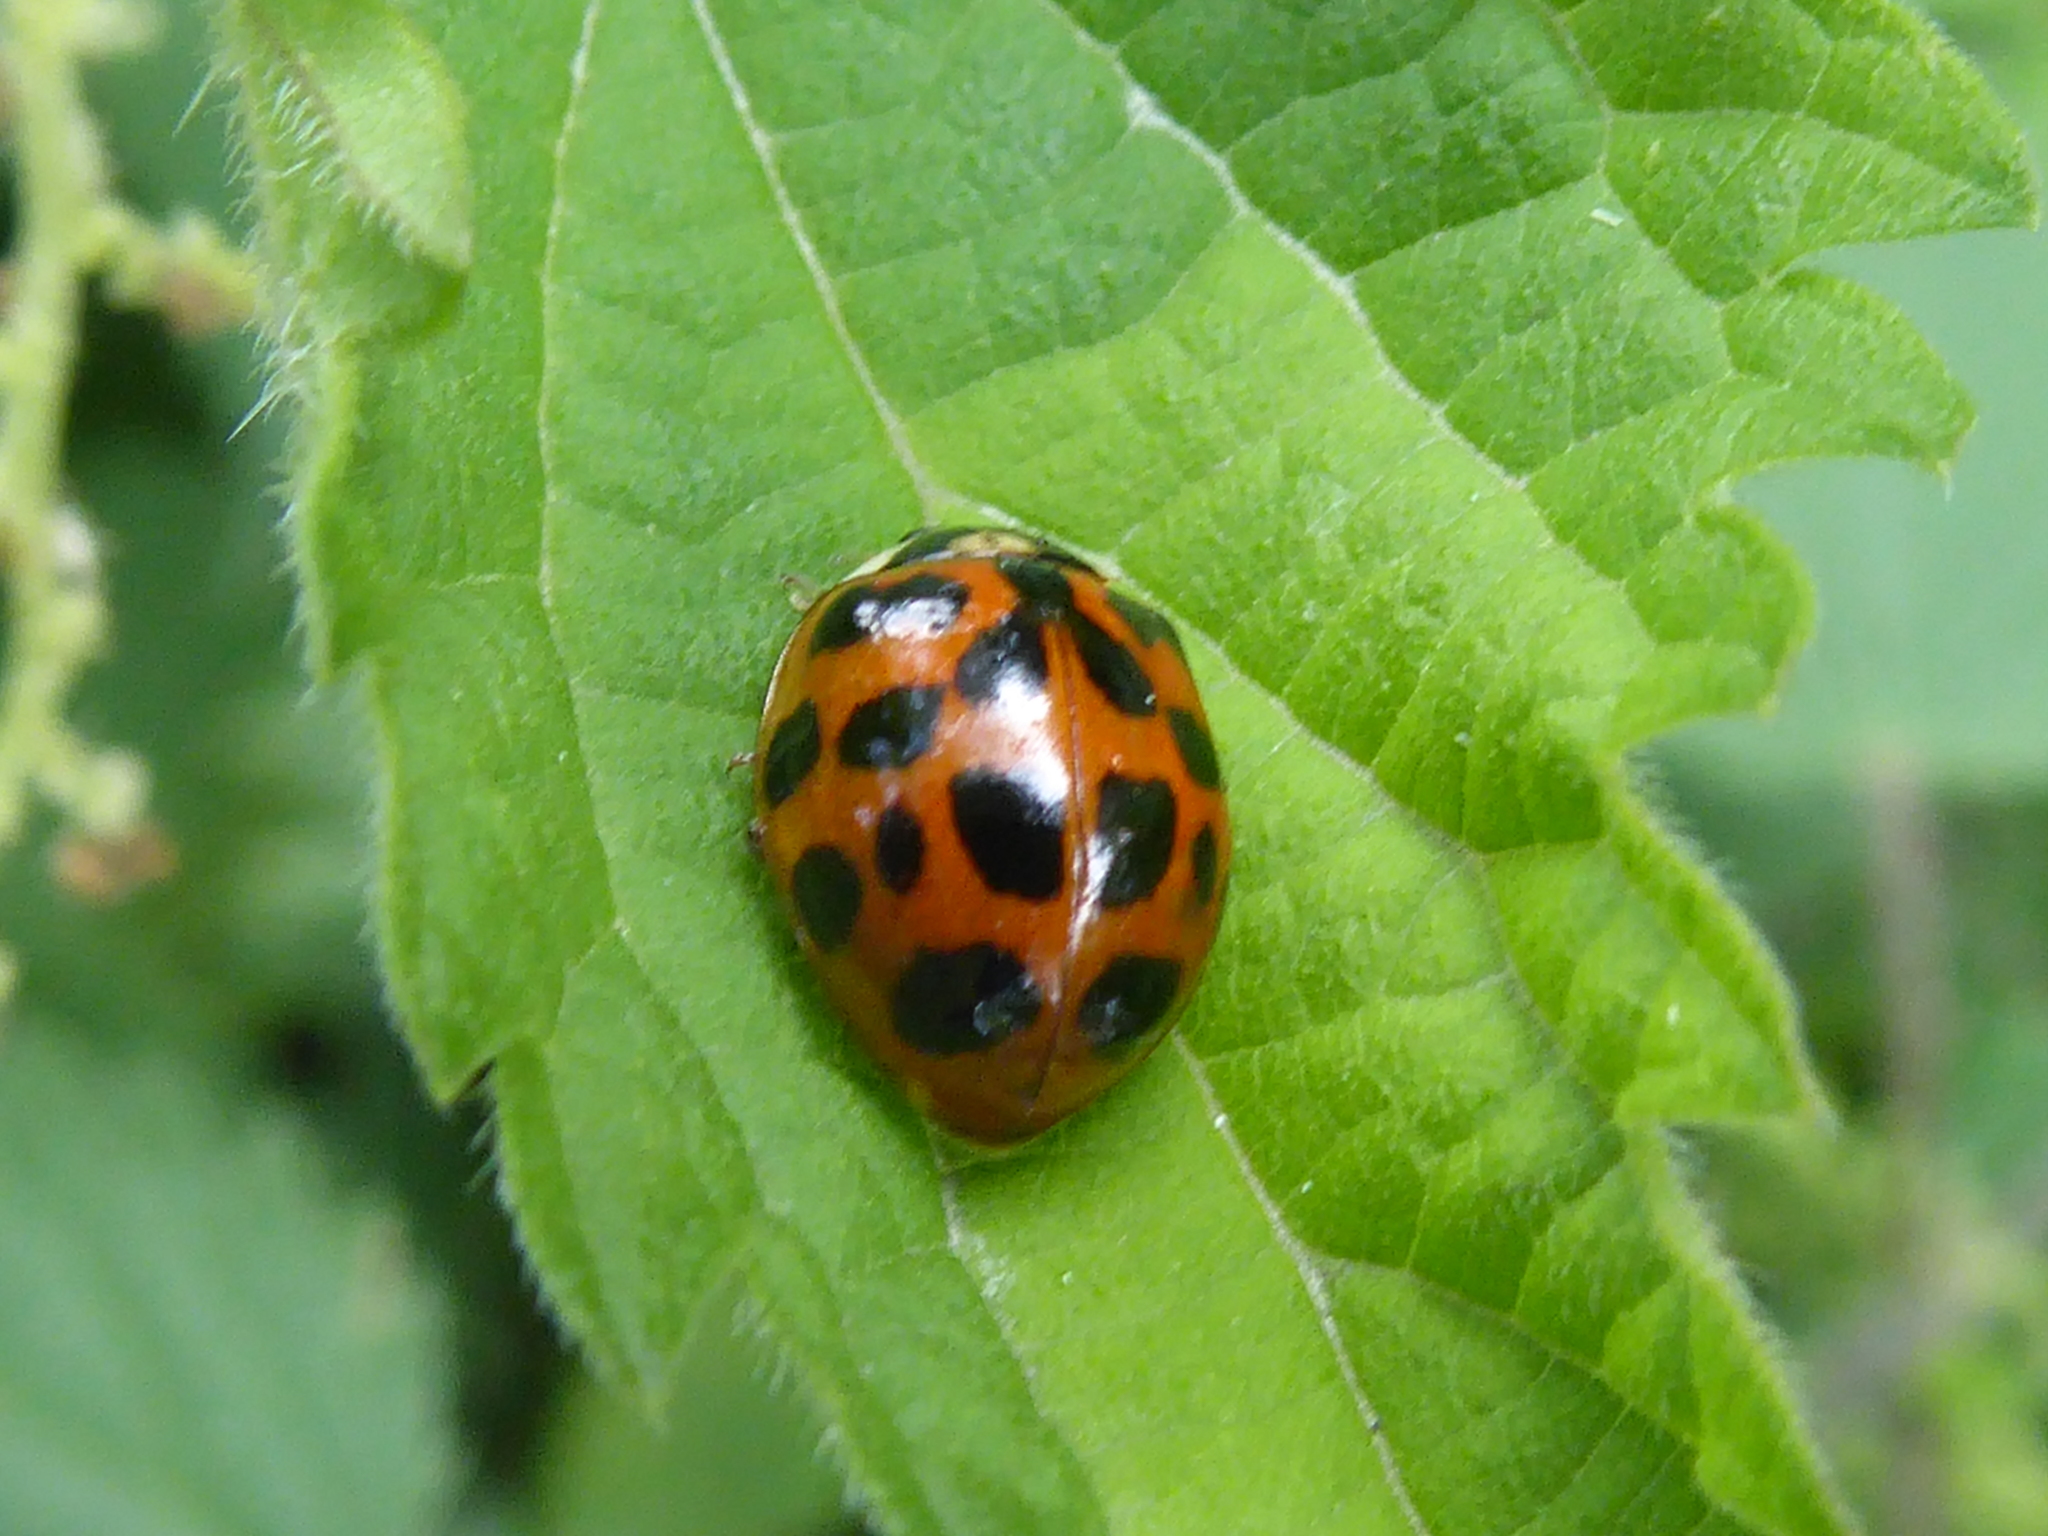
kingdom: Animalia
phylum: Arthropoda
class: Insecta
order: Coleoptera
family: Coccinellidae
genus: Harmonia
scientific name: Harmonia axyridis
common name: Harlequin ladybird
